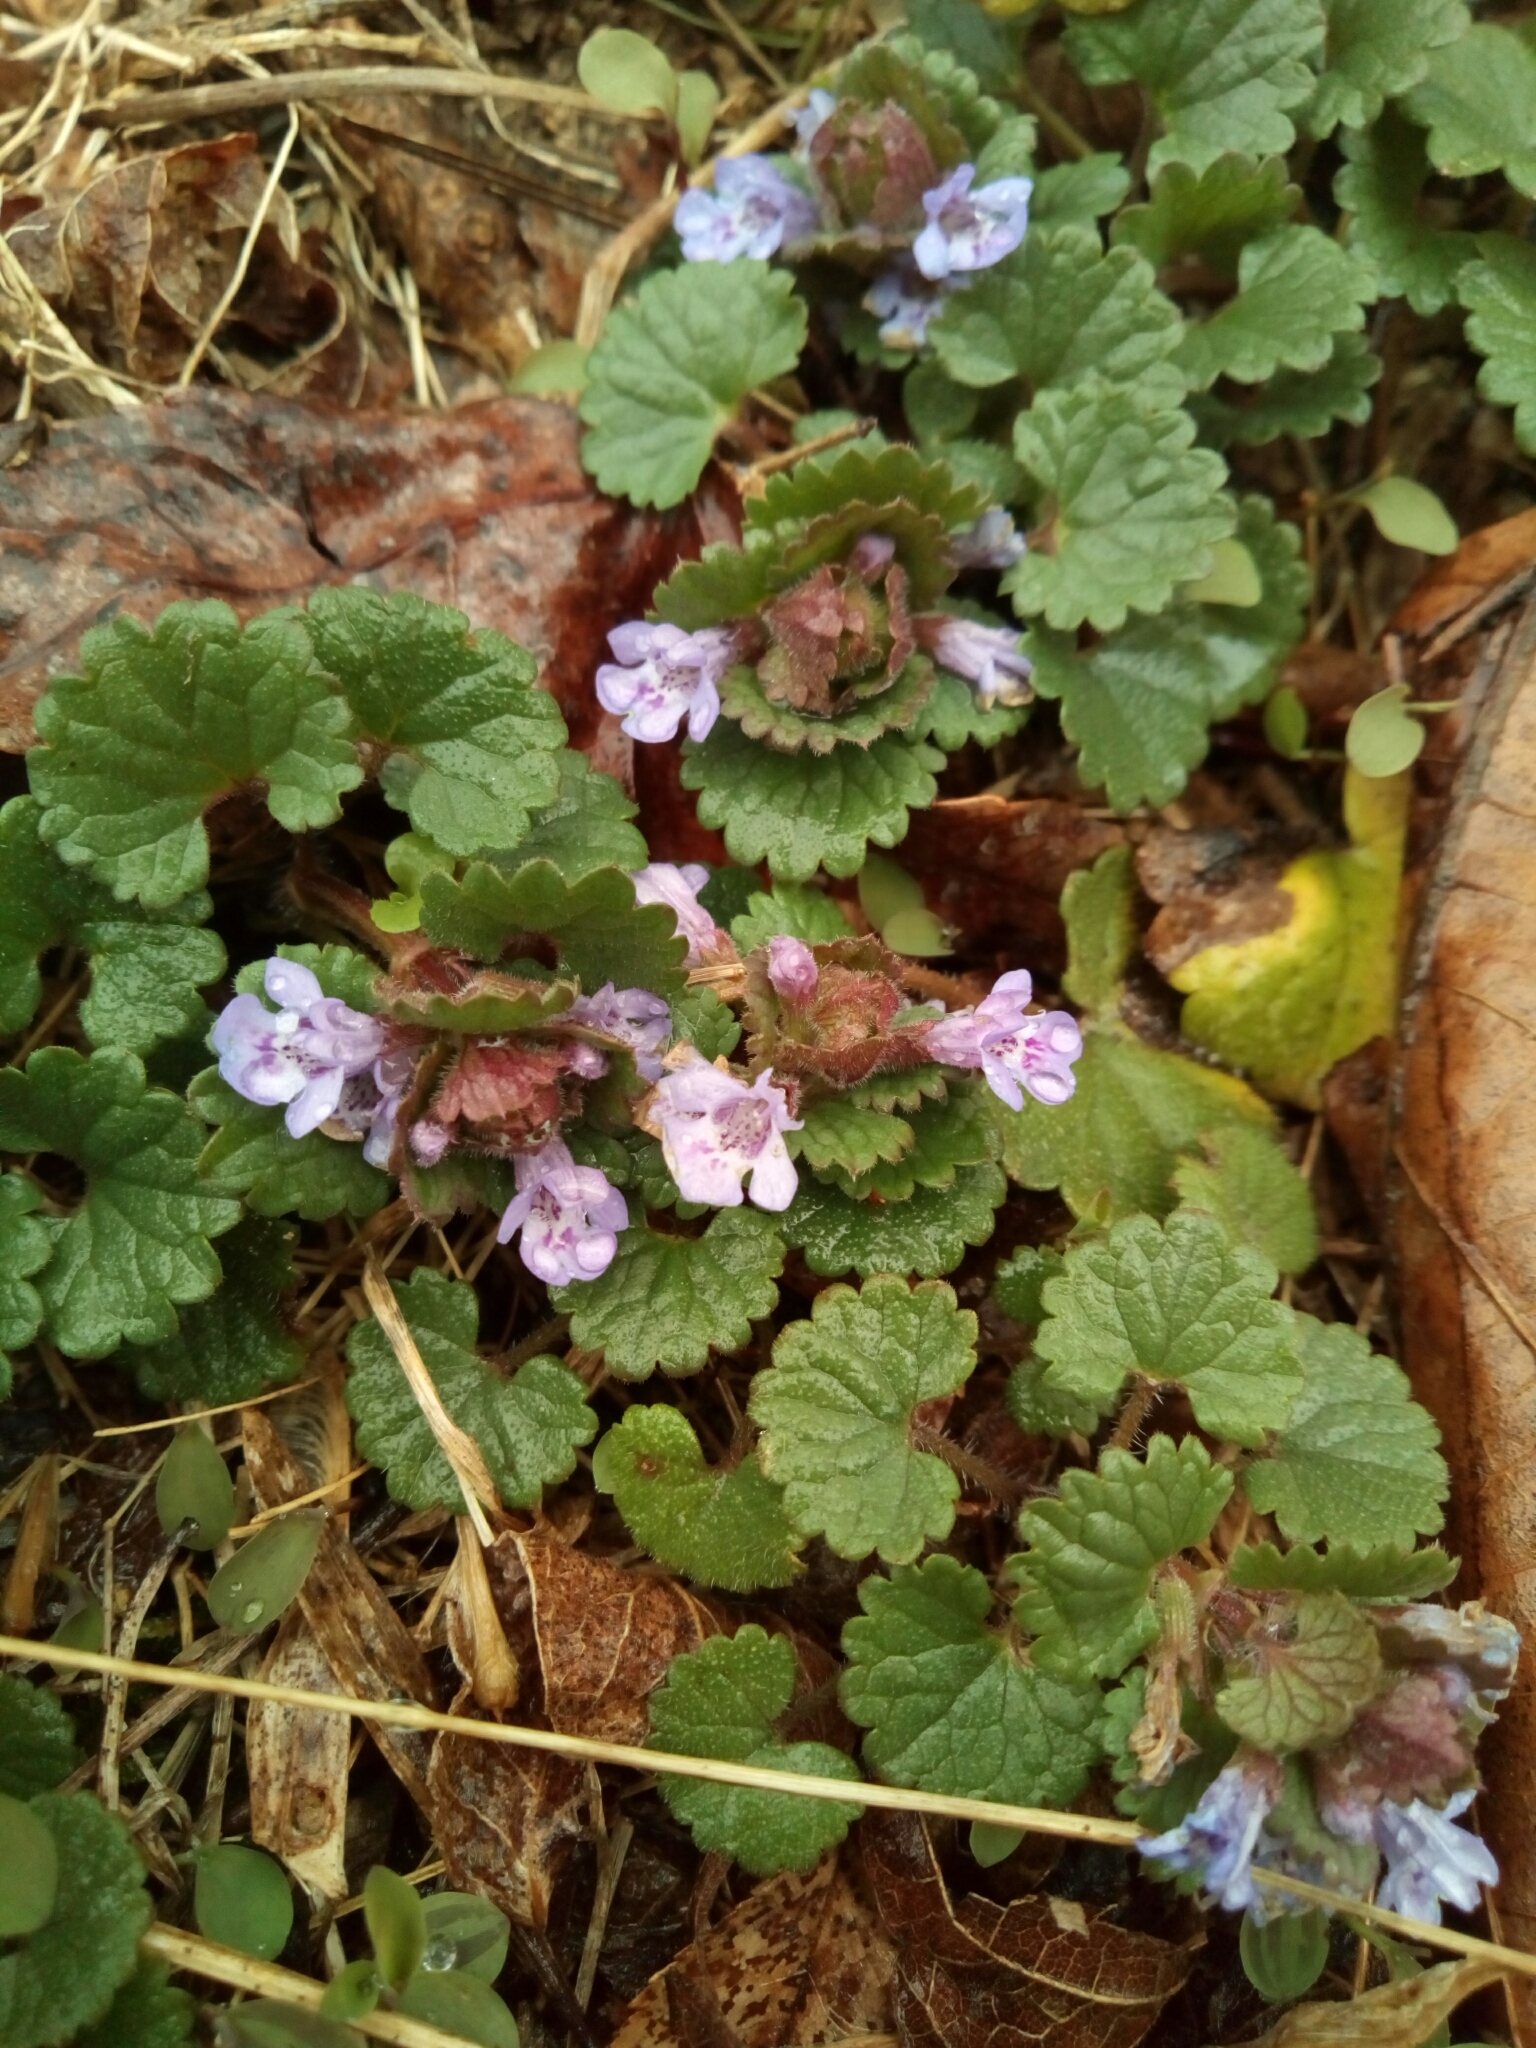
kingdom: Plantae
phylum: Tracheophyta
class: Magnoliopsida
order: Lamiales
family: Lamiaceae
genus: Glechoma
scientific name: Glechoma hederacea
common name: Ground ivy
